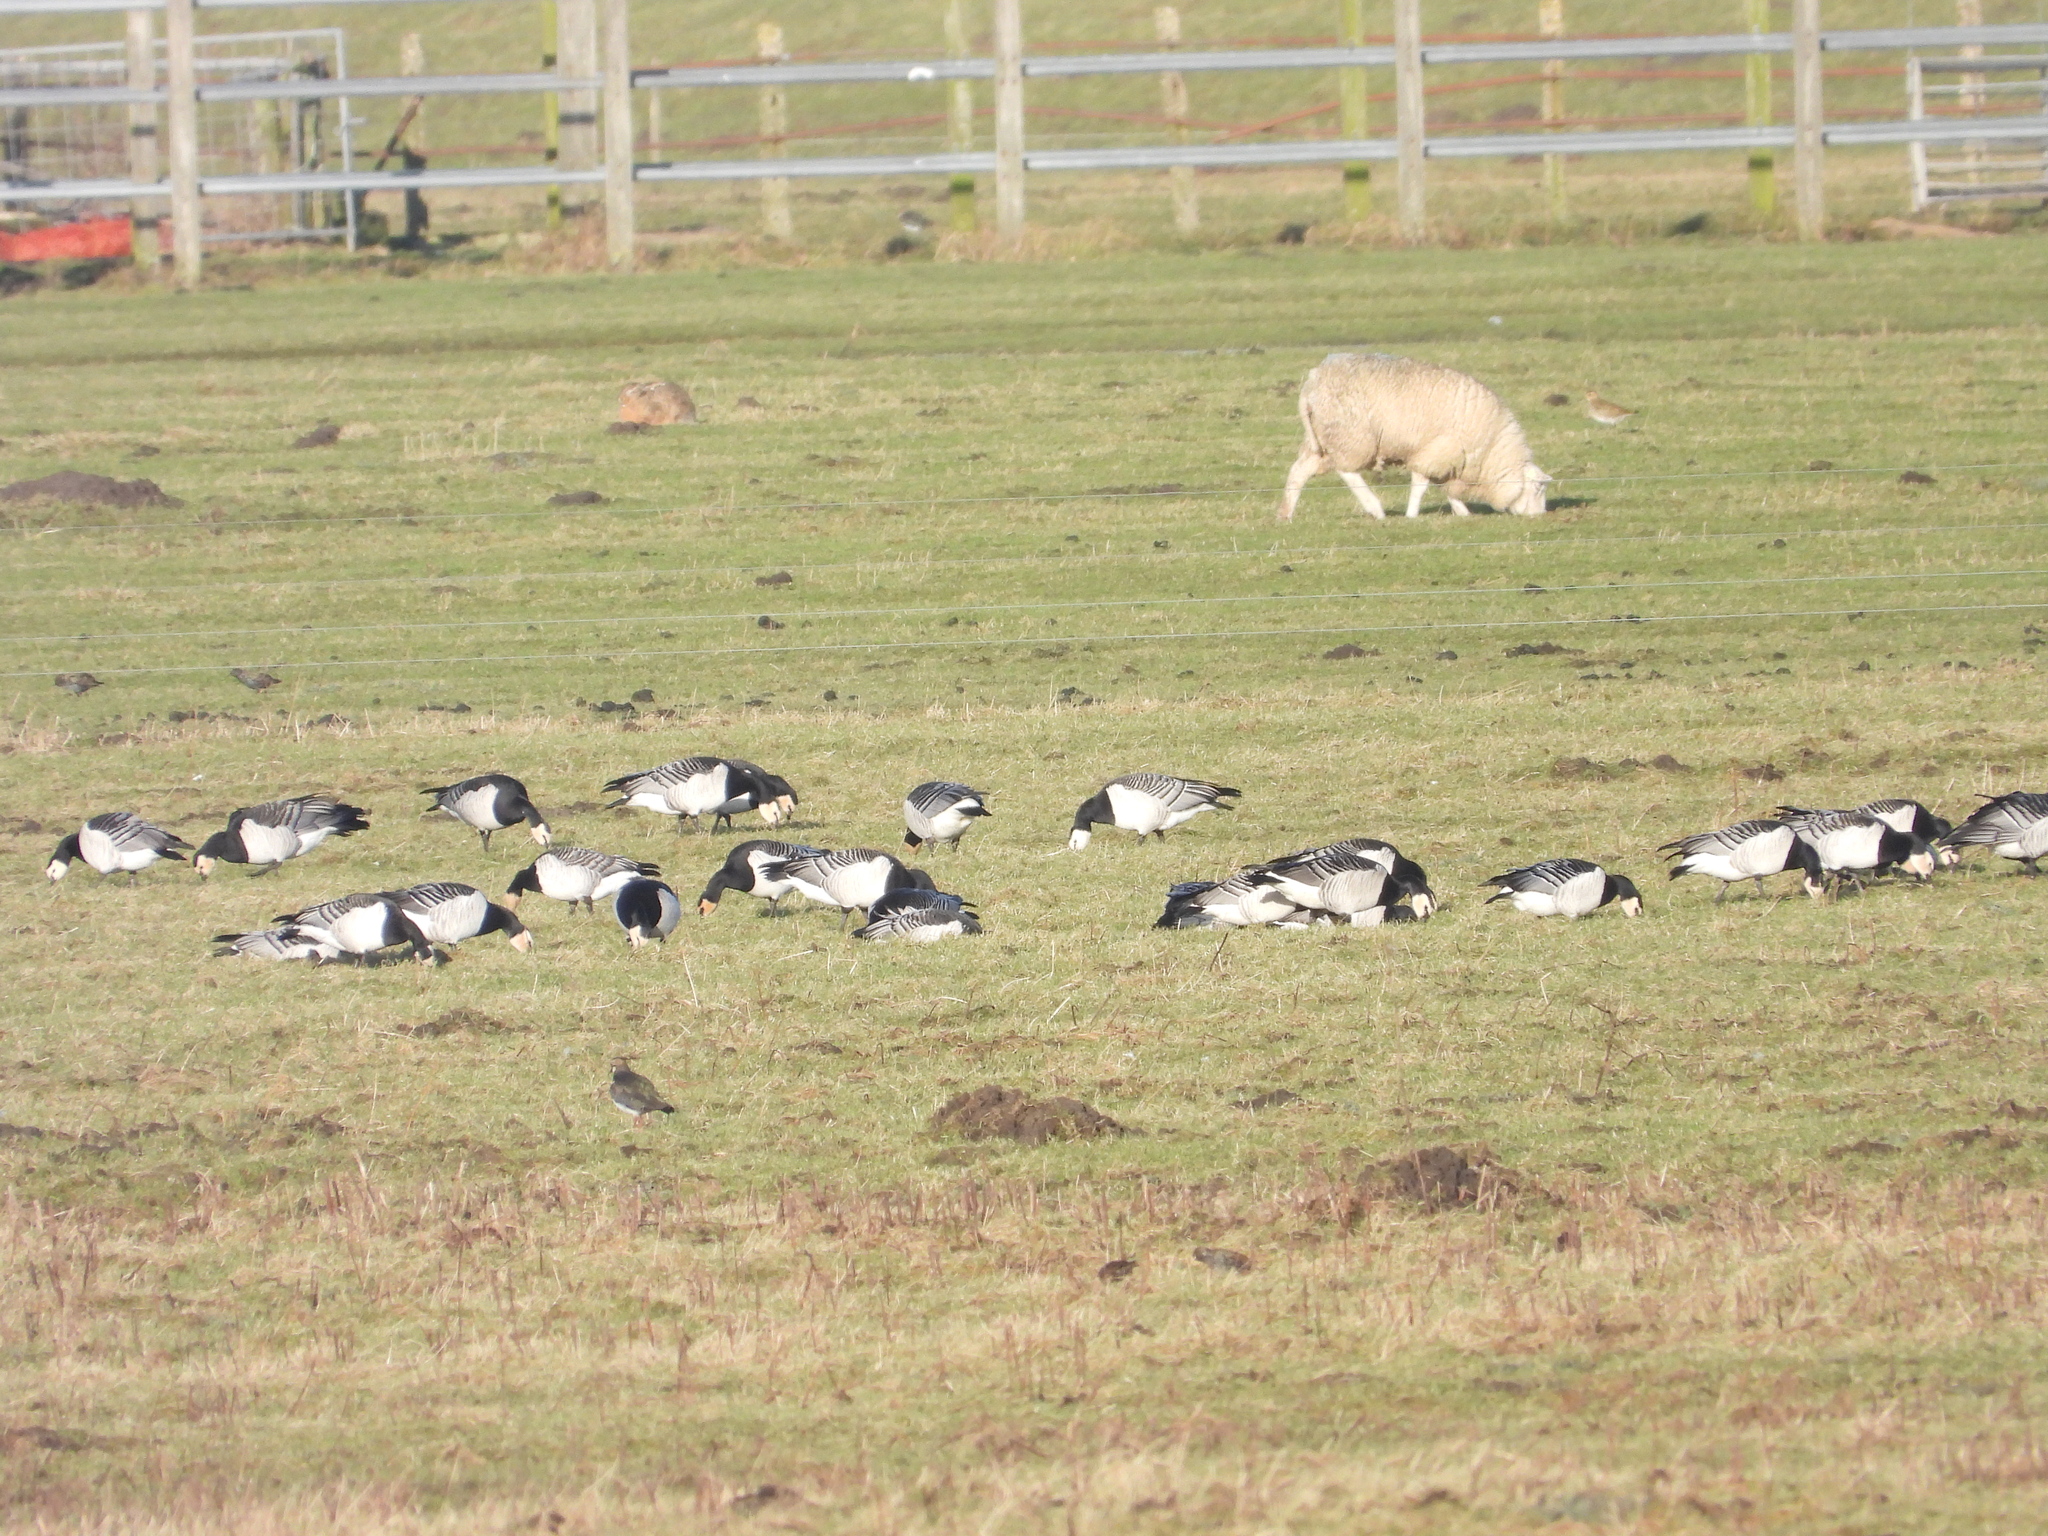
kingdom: Animalia
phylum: Chordata
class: Aves
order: Anseriformes
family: Anatidae
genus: Branta
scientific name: Branta leucopsis
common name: Barnacle goose
